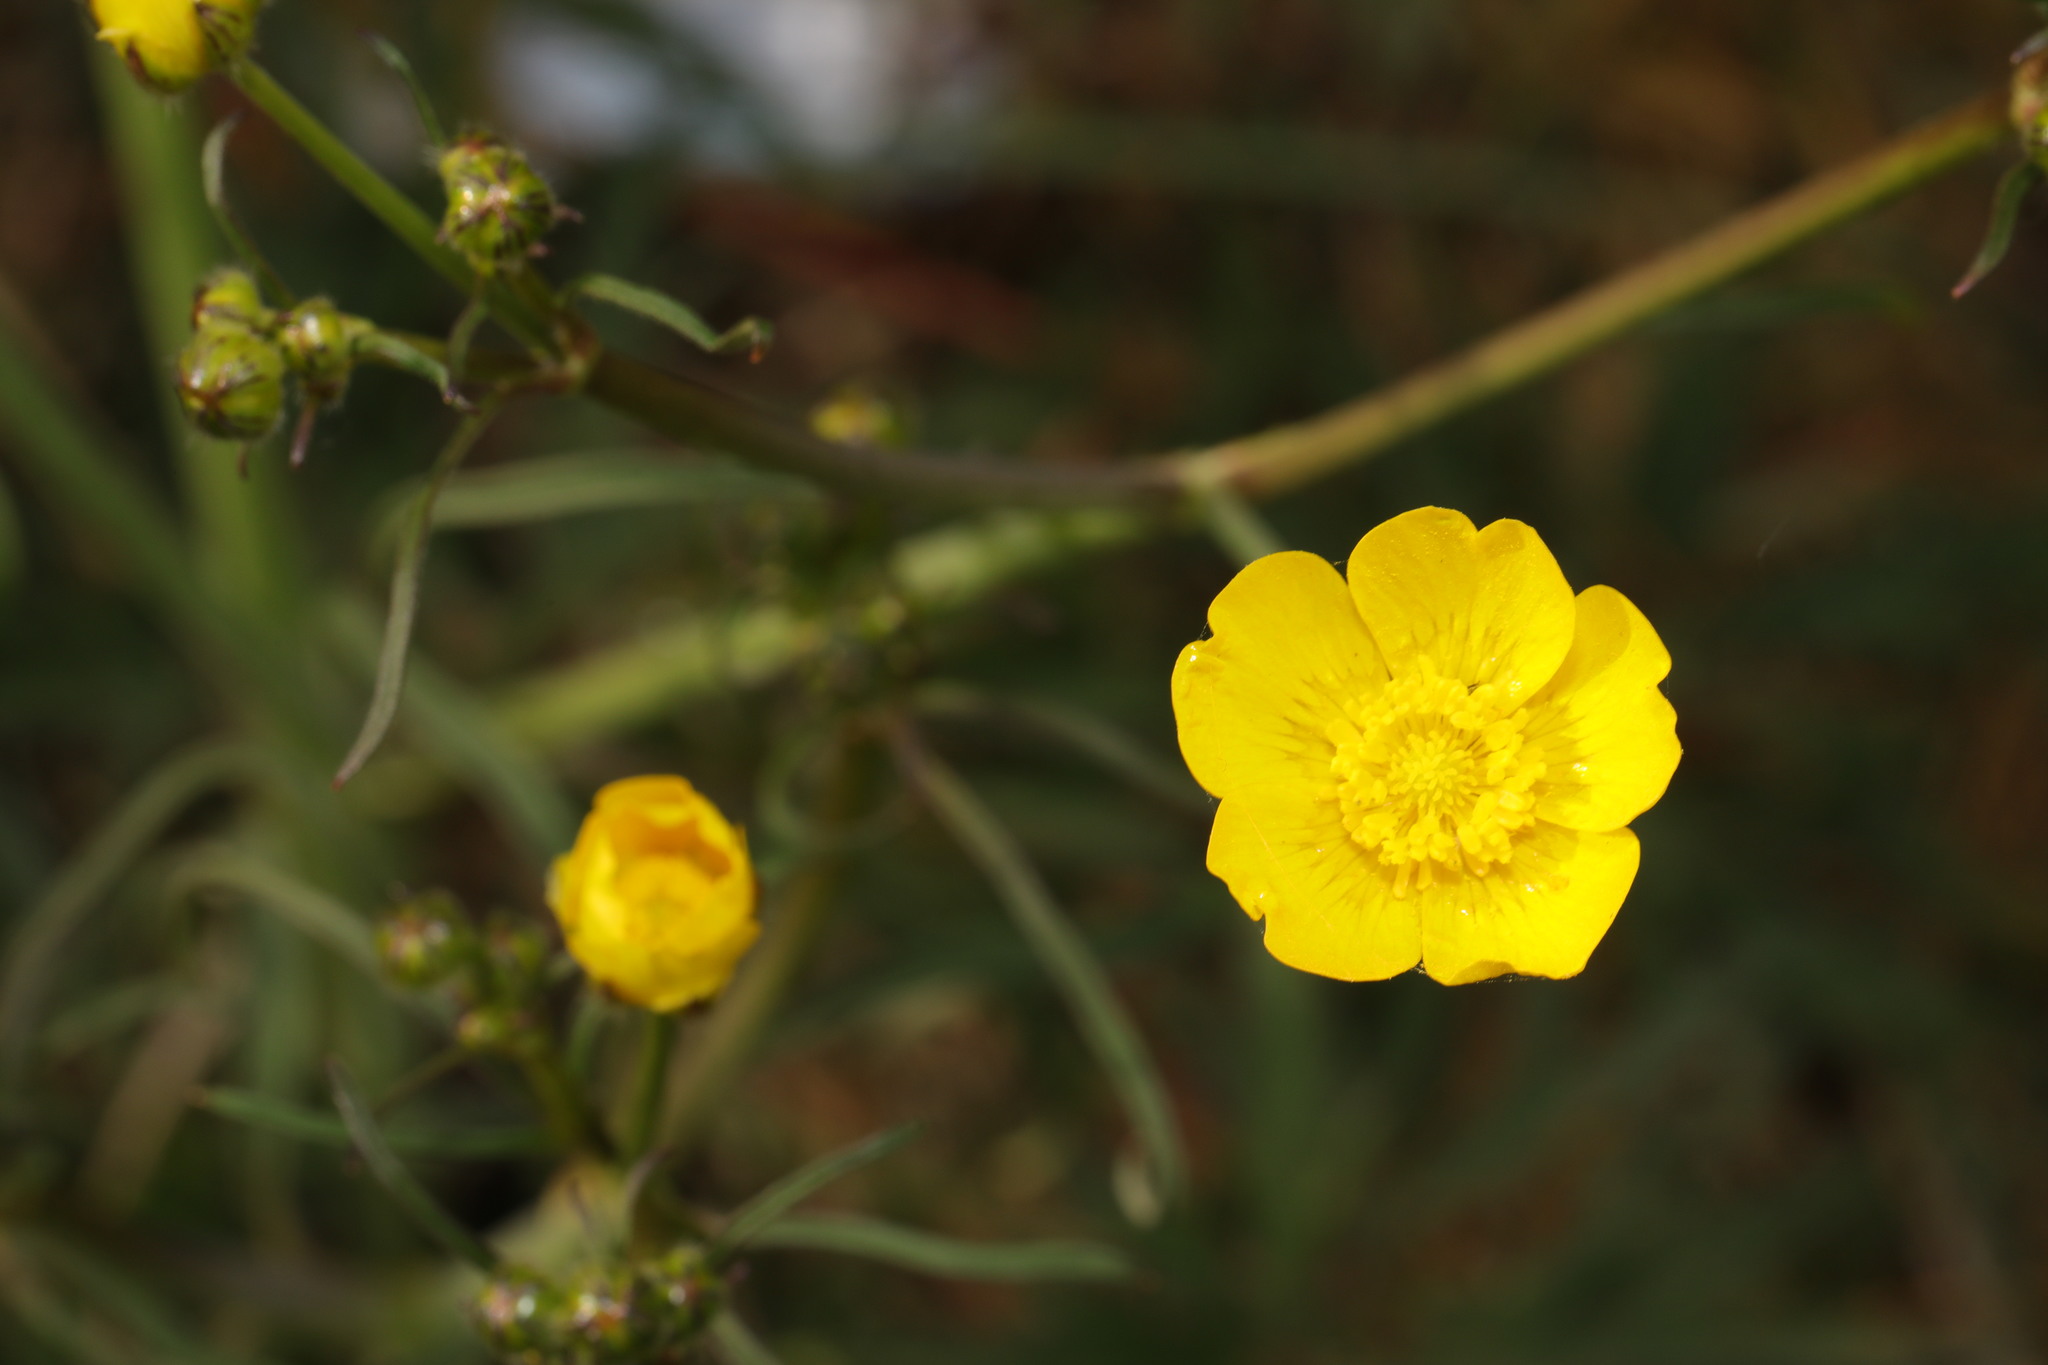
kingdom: Plantae
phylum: Tracheophyta
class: Magnoliopsida
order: Ranunculales
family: Ranunculaceae
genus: Ranunculus
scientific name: Ranunculus acris
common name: Meadow buttercup
